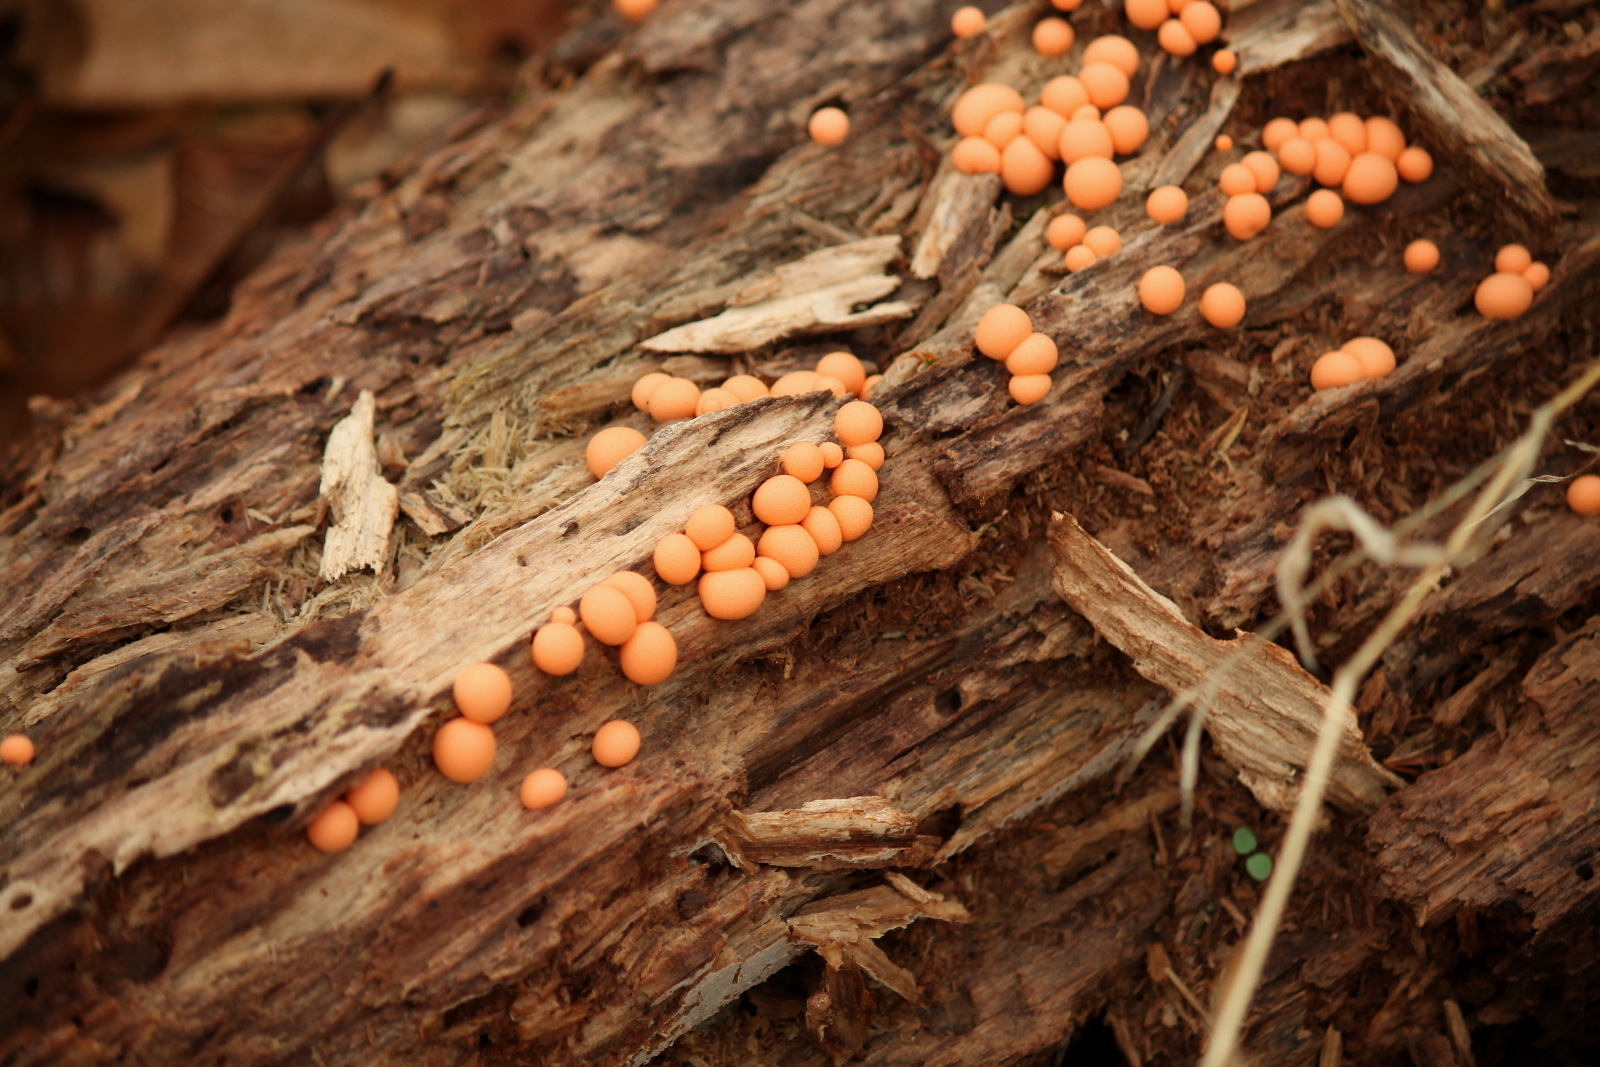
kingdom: Protozoa
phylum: Mycetozoa
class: Myxomycetes
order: Cribrariales
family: Tubiferaceae
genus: Lycogala
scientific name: Lycogala epidendrum
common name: Wolf's milk
